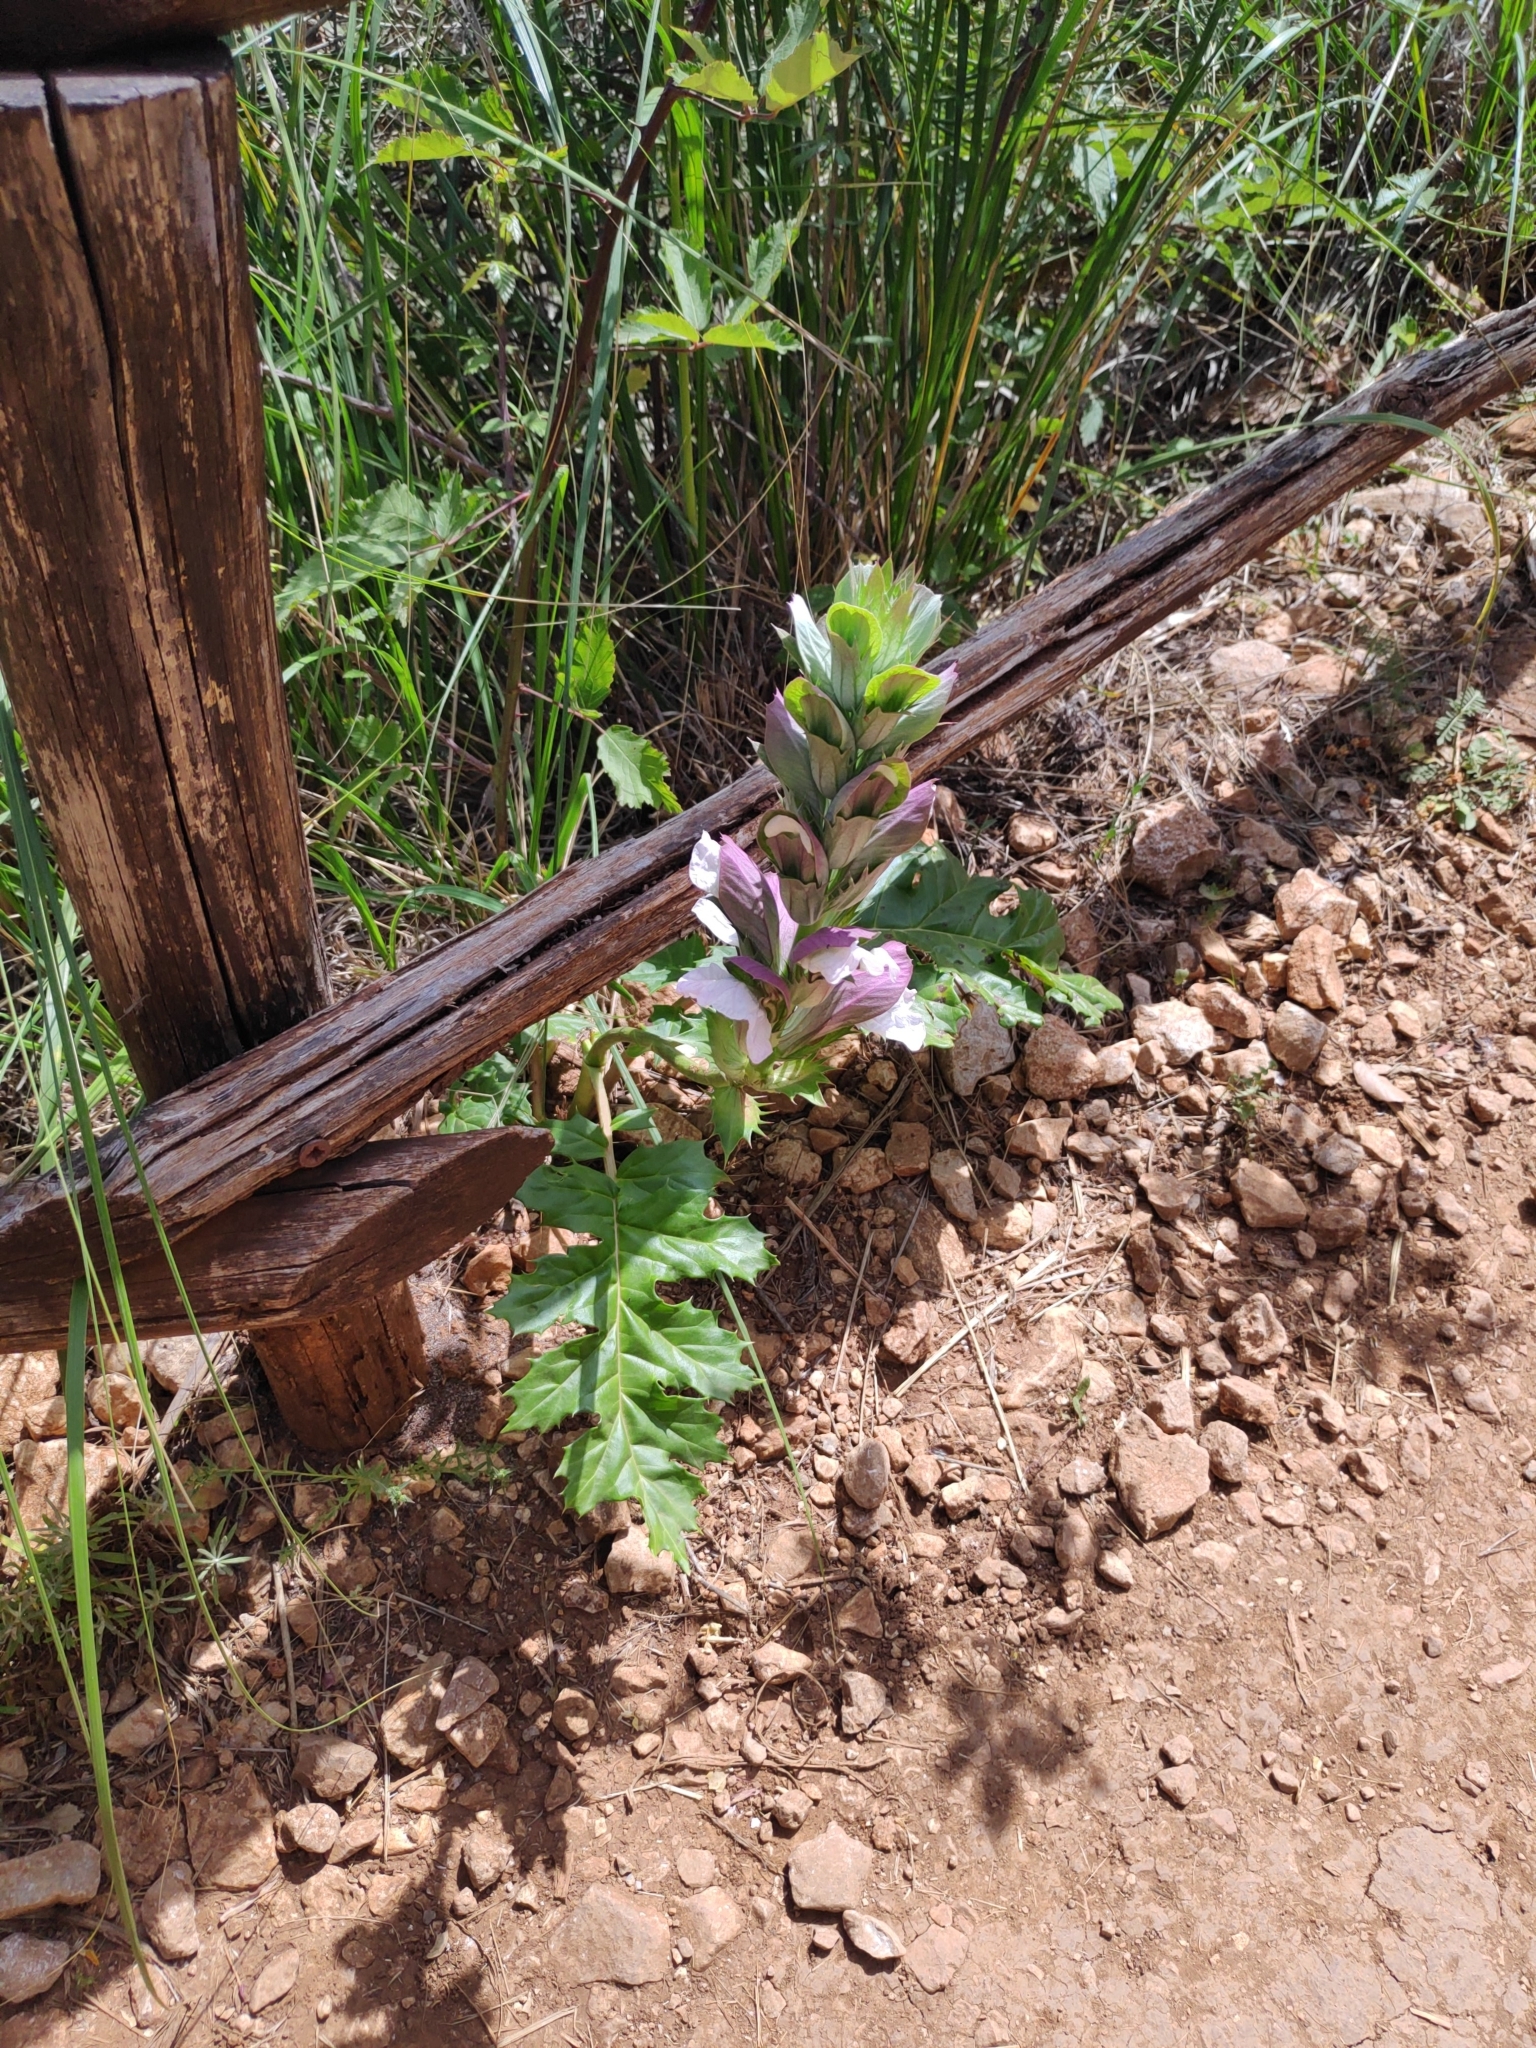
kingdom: Plantae
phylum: Tracheophyta
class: Magnoliopsida
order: Lamiales
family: Acanthaceae
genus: Acanthus
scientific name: Acanthus mollis
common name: Bear's-breech
